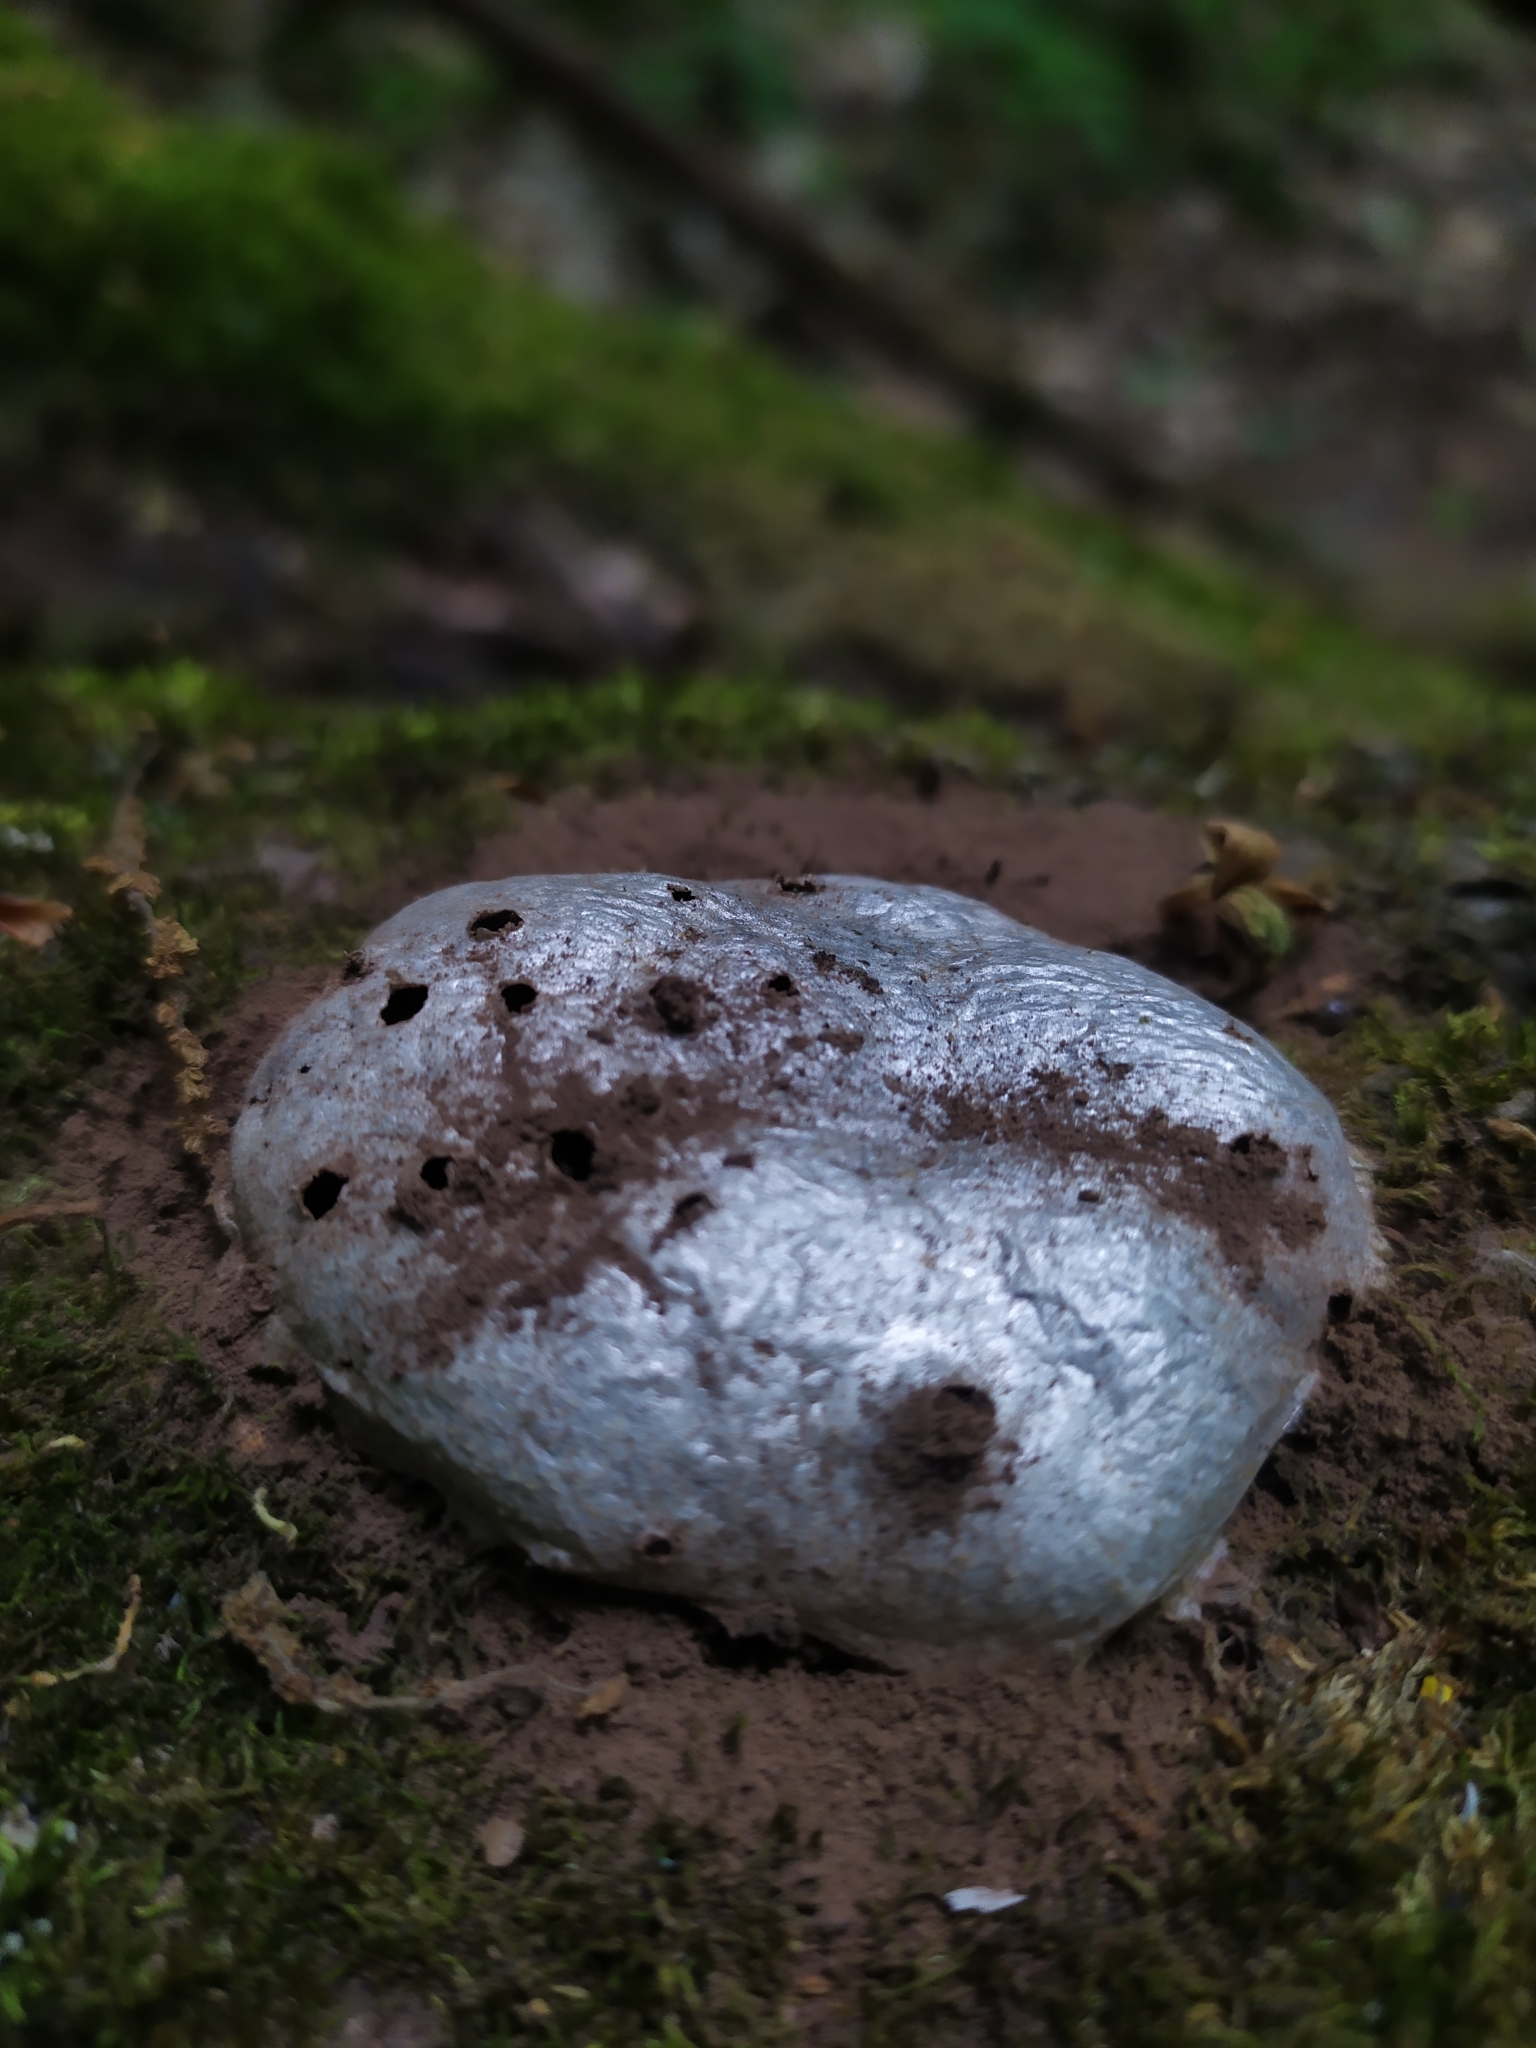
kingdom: Protozoa
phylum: Mycetozoa
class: Myxomycetes
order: Cribrariales
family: Tubiferaceae
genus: Reticularia
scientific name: Reticularia lycoperdon
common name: False puffball
